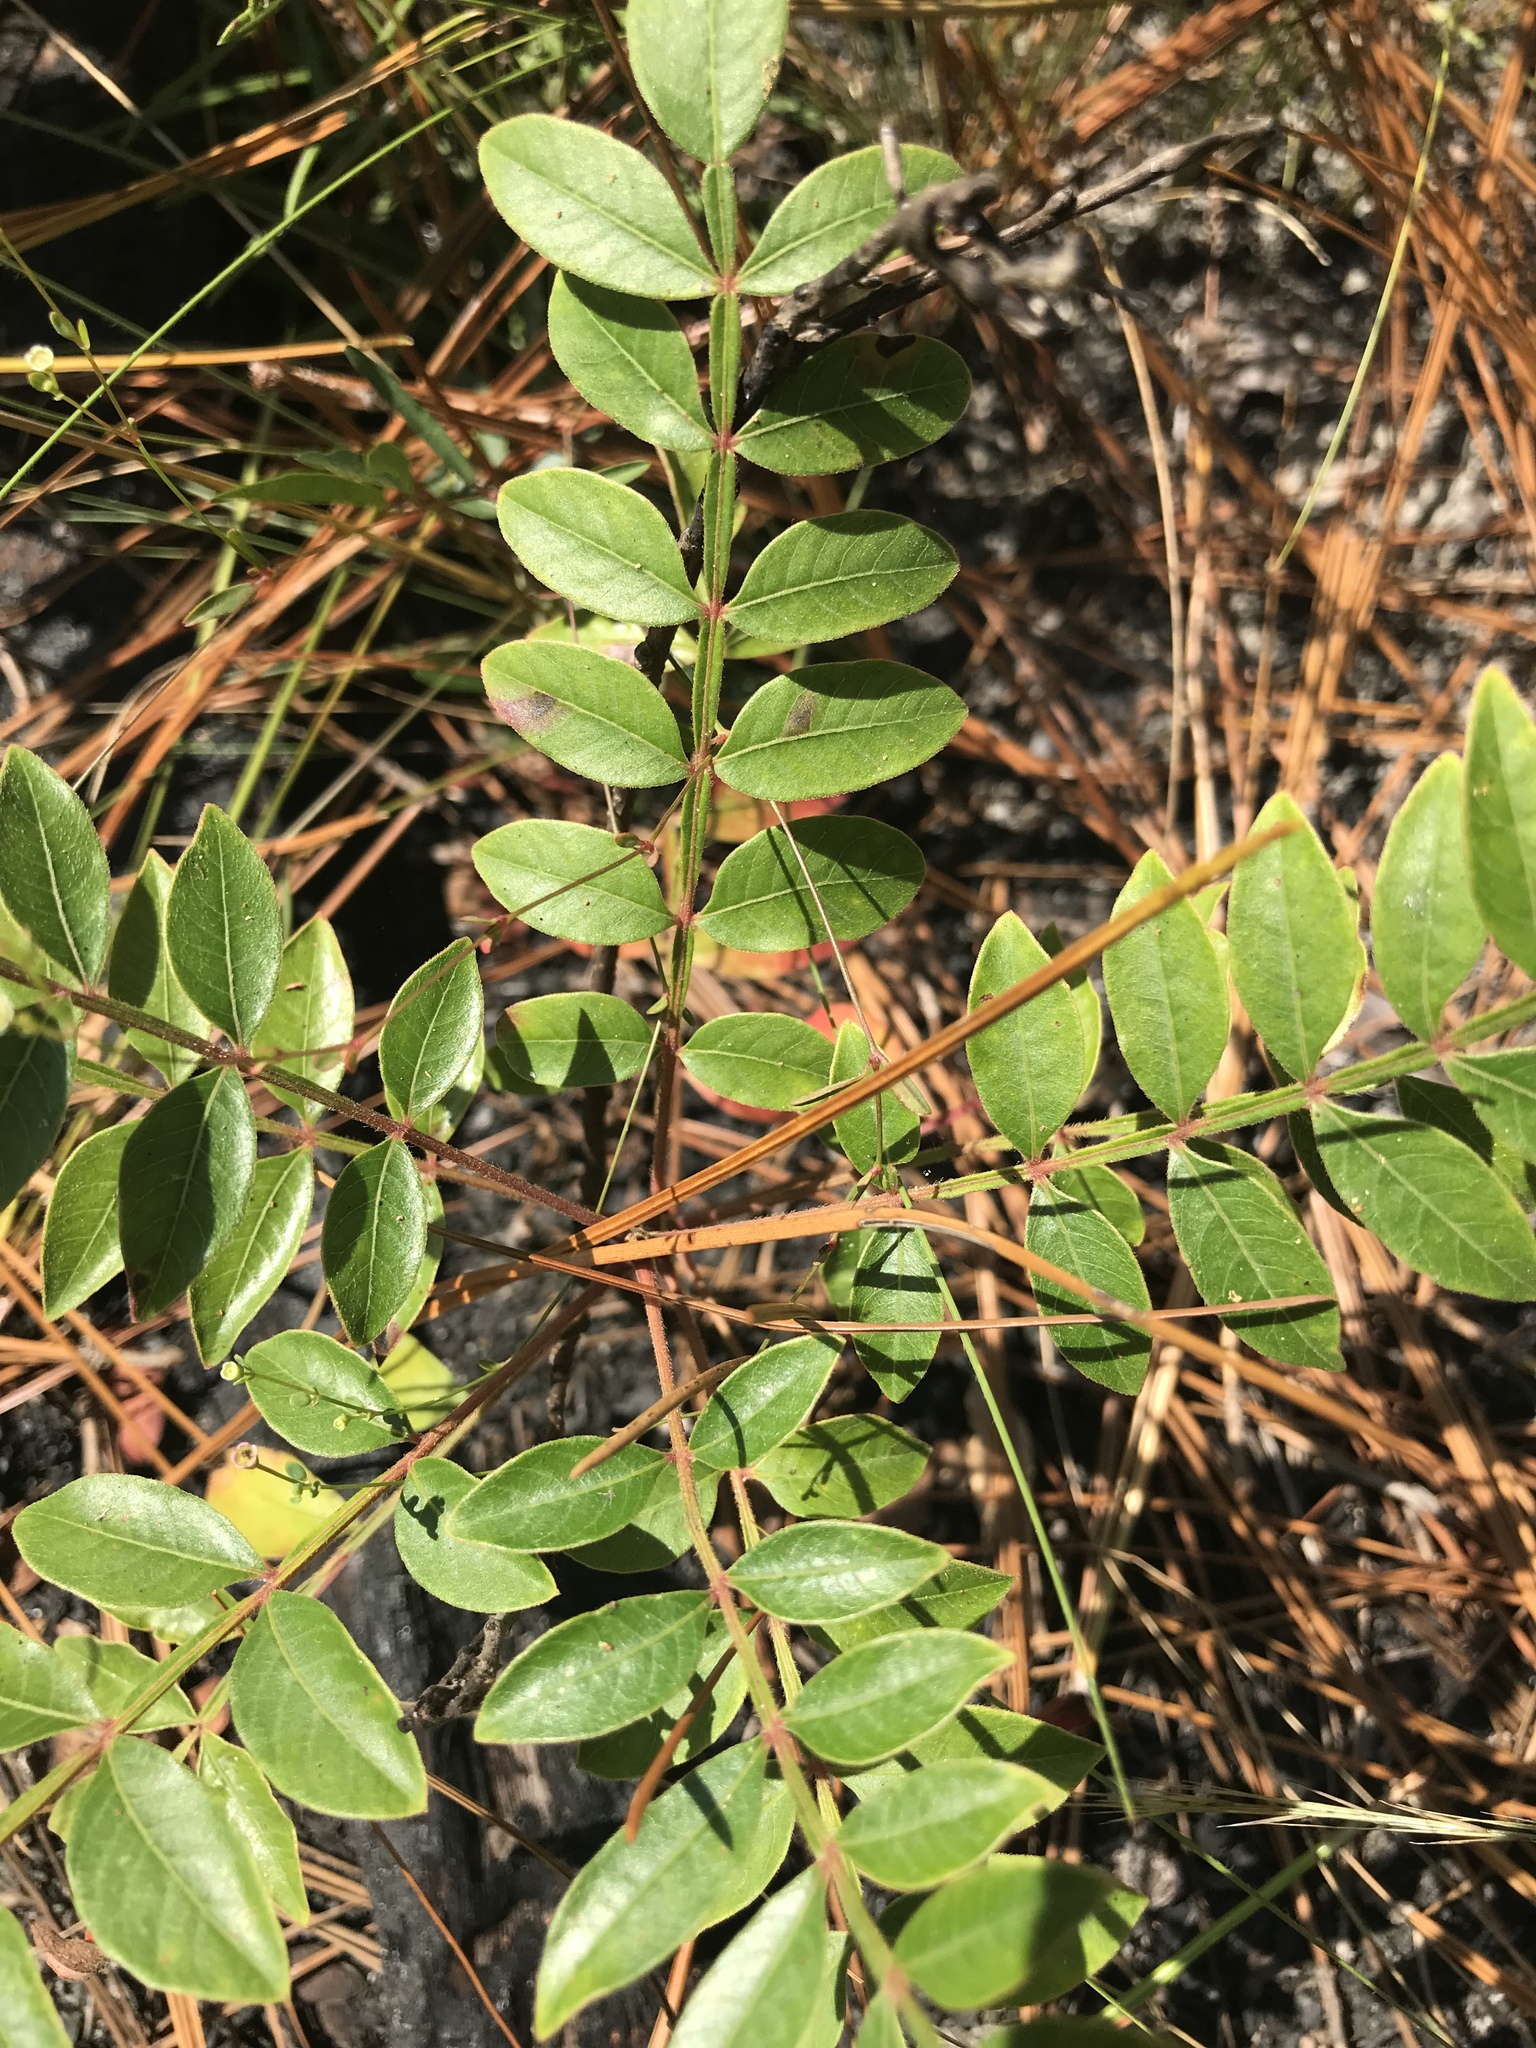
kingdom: Plantae
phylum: Tracheophyta
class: Magnoliopsida
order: Sapindales
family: Anacardiaceae
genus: Rhus
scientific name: Rhus copallina
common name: Shining sumac
